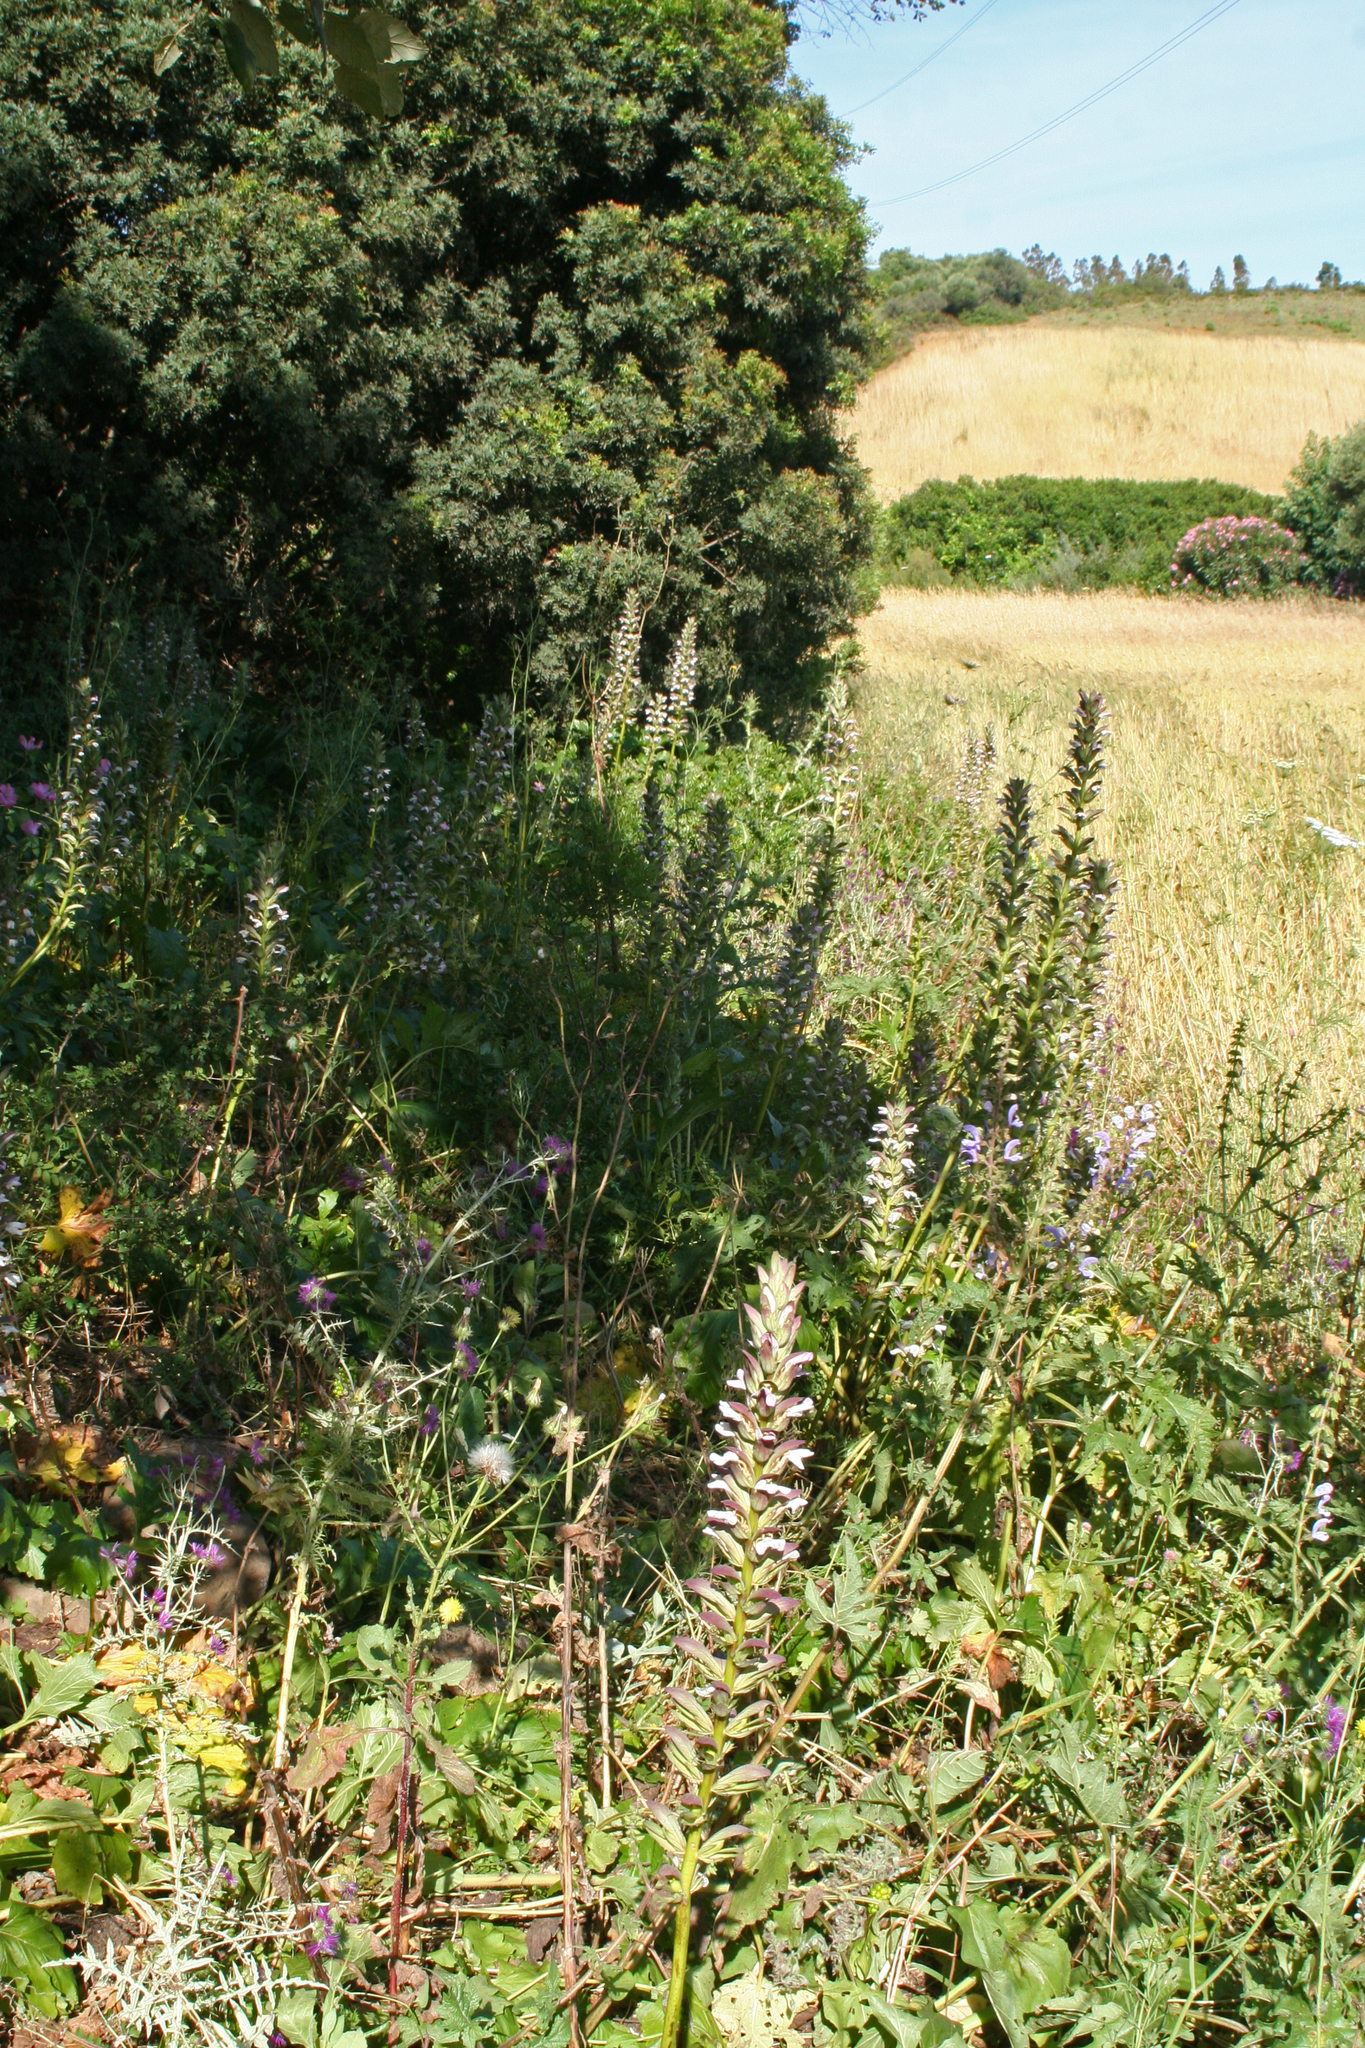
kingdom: Plantae
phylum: Tracheophyta
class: Magnoliopsida
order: Lamiales
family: Acanthaceae
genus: Acanthus
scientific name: Acanthus mollis
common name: Bear's-breech
